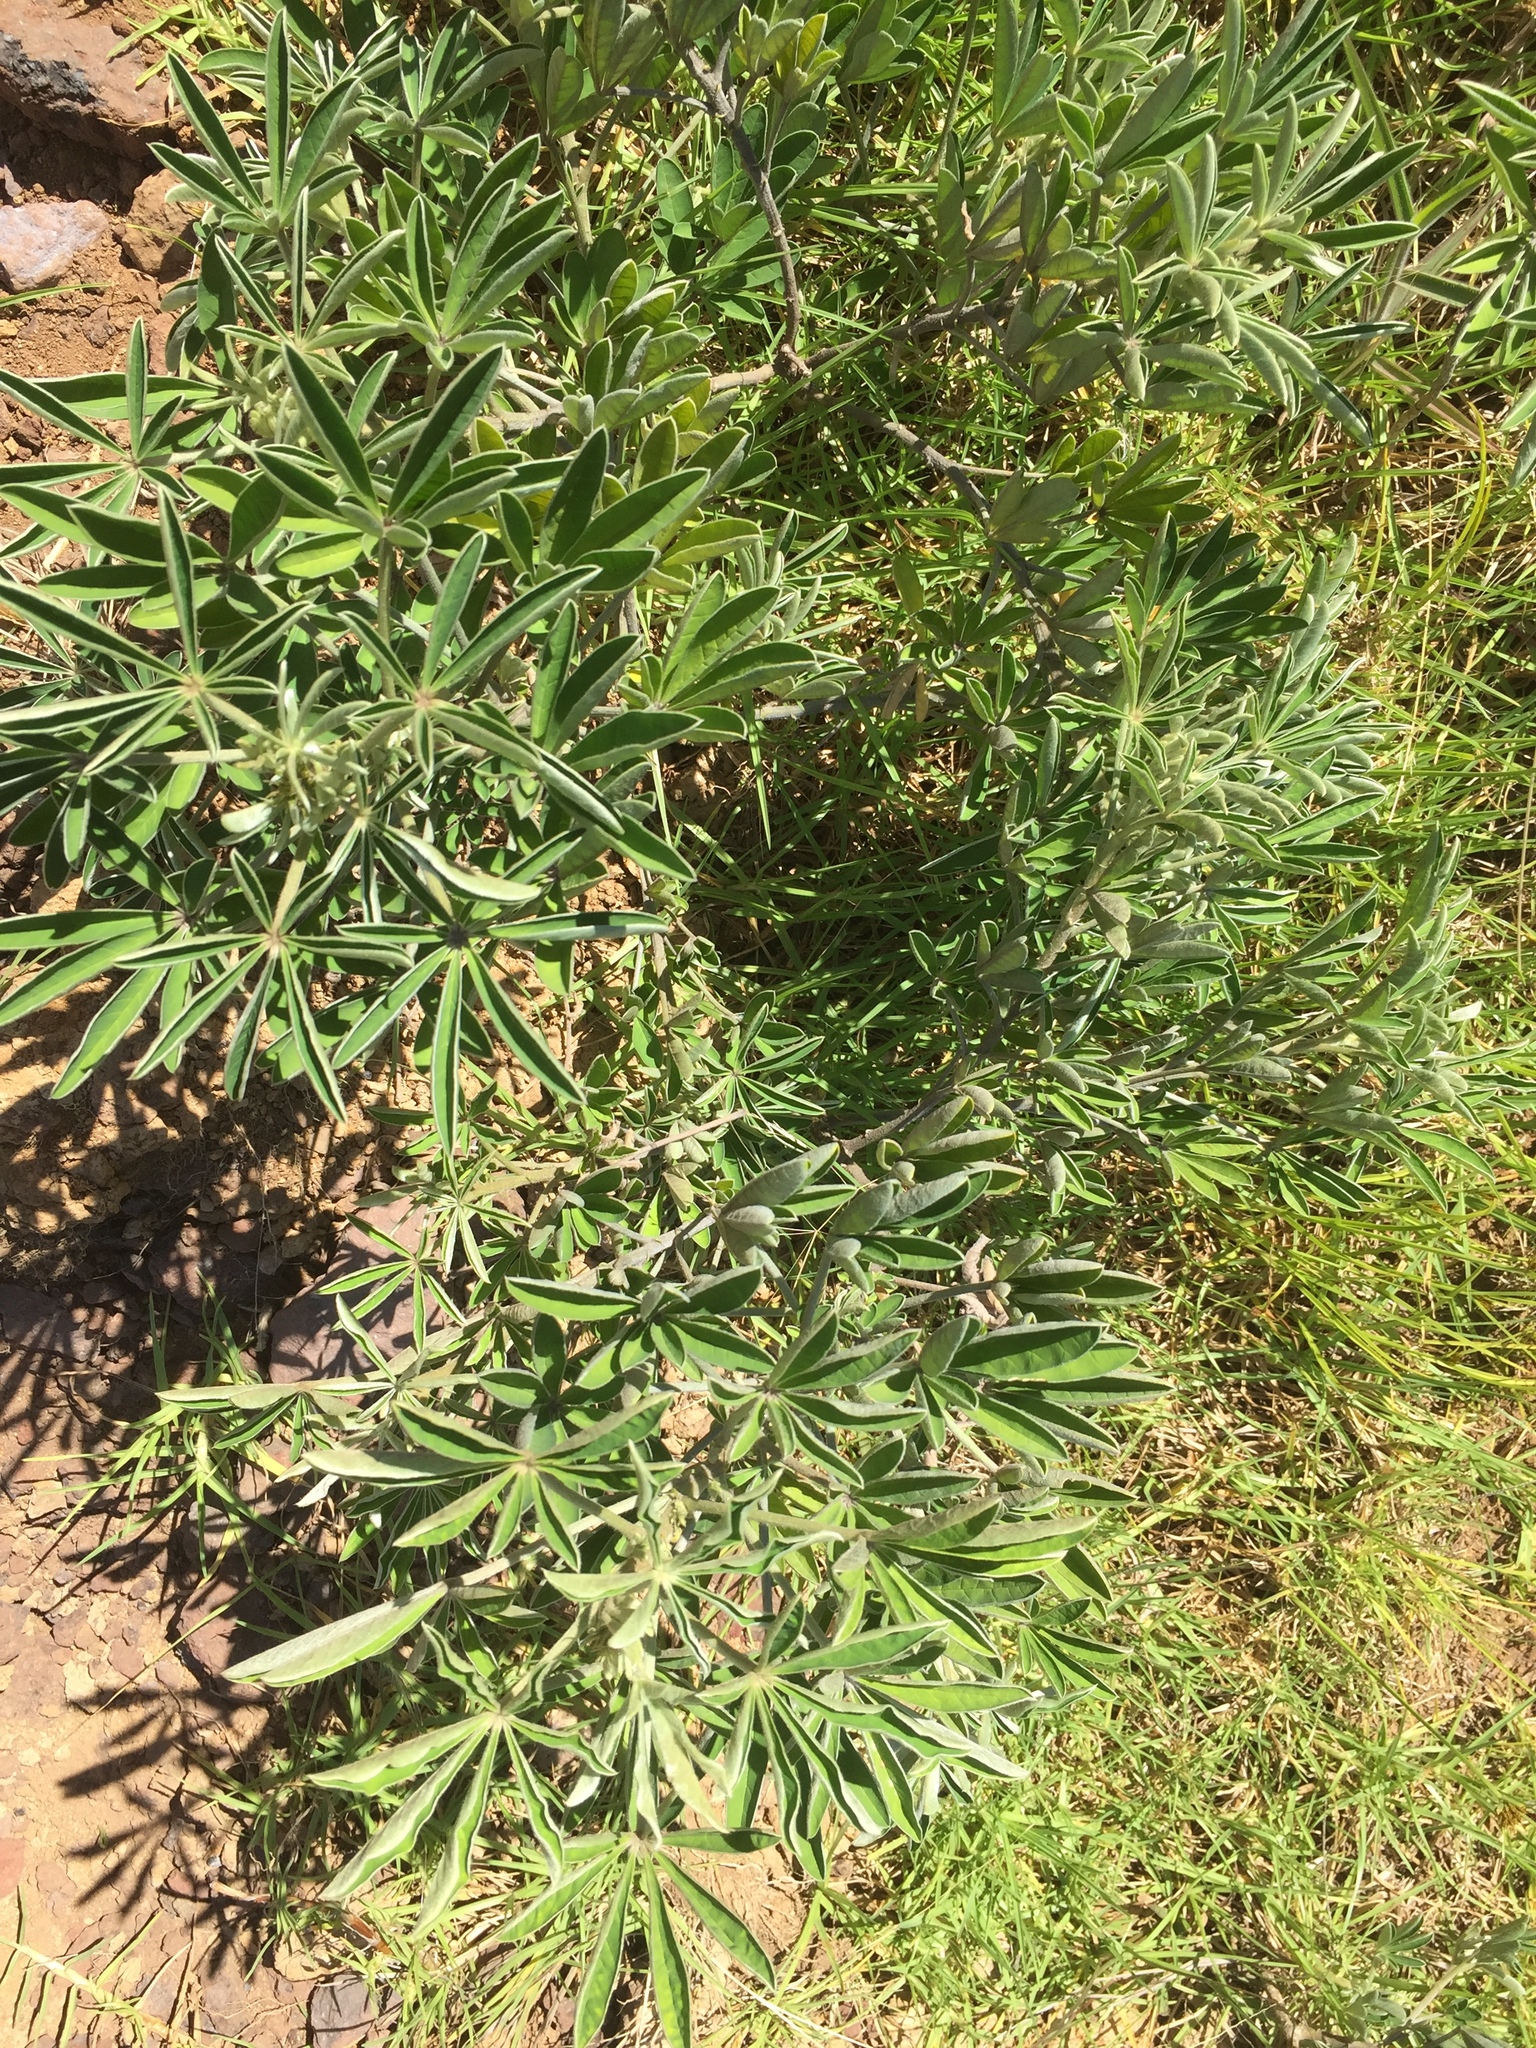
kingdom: Plantae
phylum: Tracheophyta
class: Magnoliopsida
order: Fabales
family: Fabaceae
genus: Crotalaria
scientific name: Crotalaria grahamiana
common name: Bushy rattlepod
